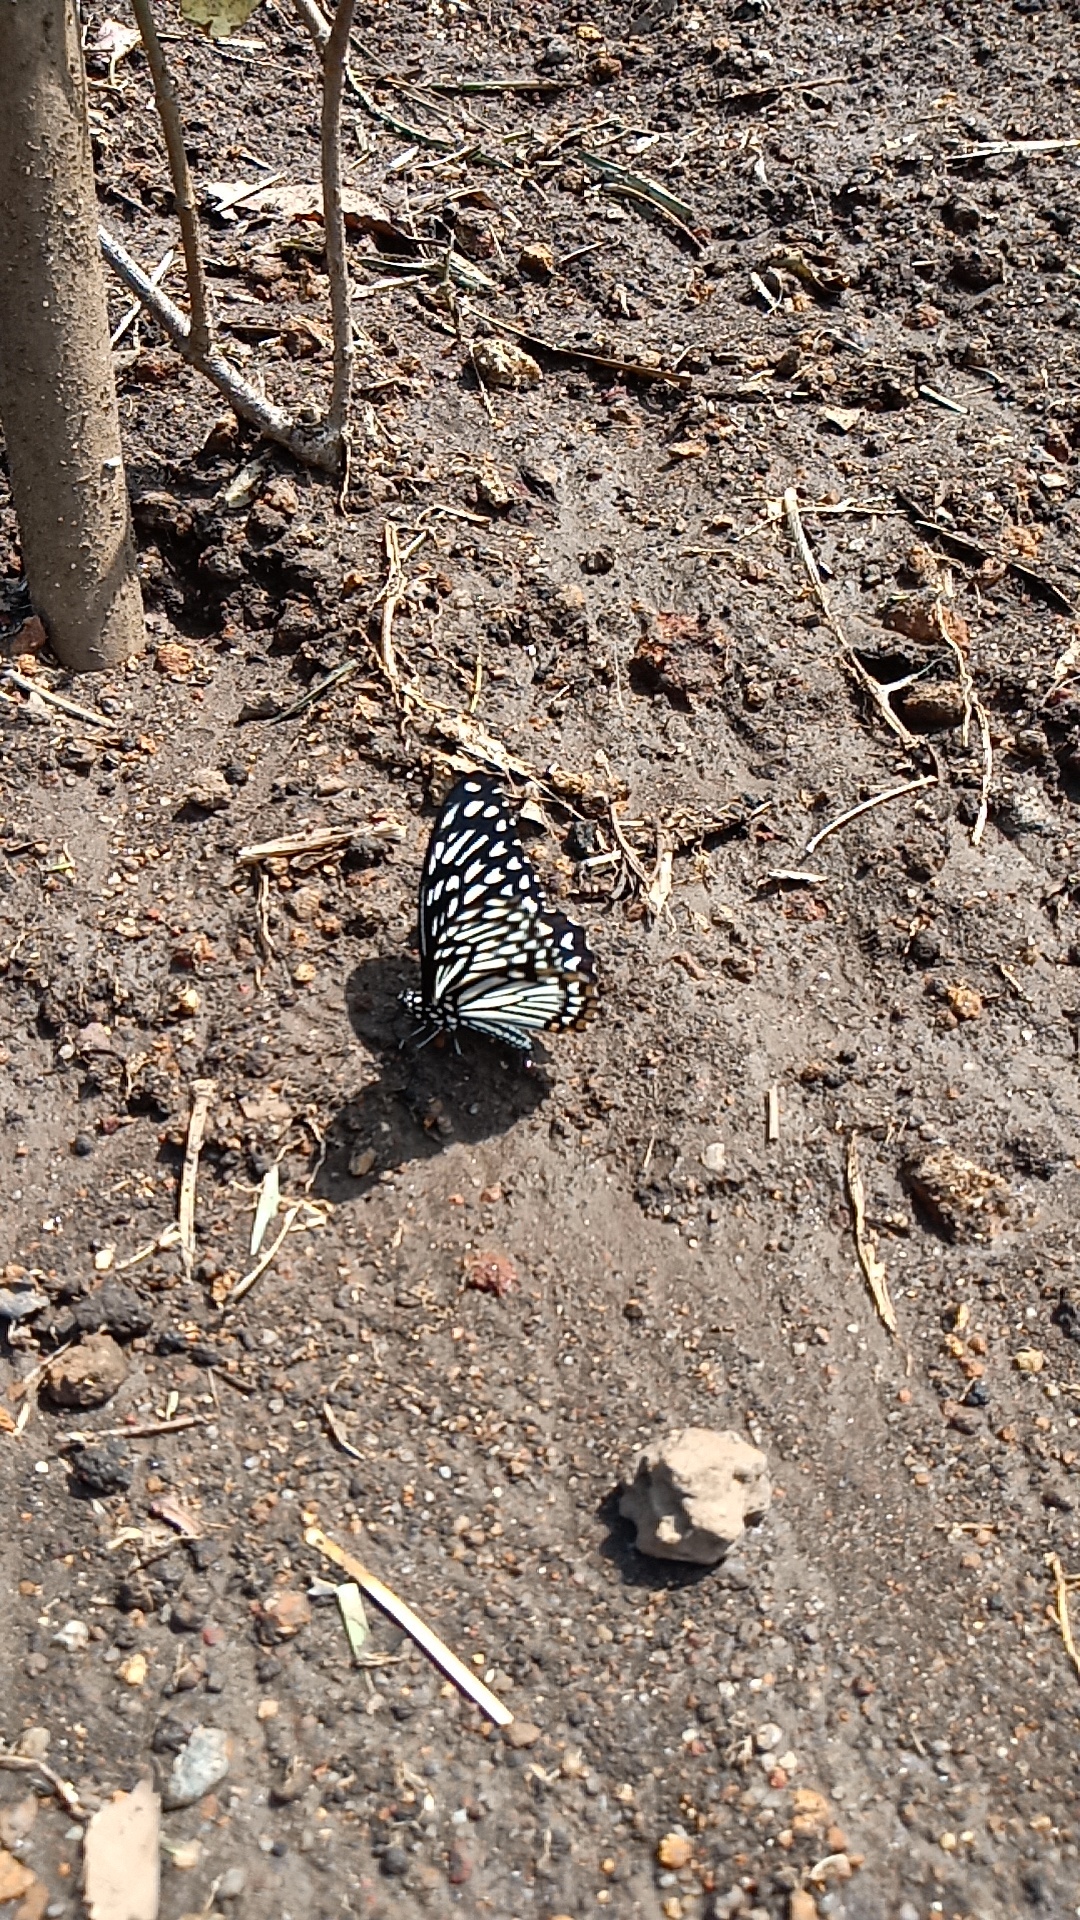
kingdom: Animalia
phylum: Arthropoda
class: Insecta
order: Lepidoptera
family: Papilionidae
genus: Chilasa
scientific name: Chilasa clytia
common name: Common mime
